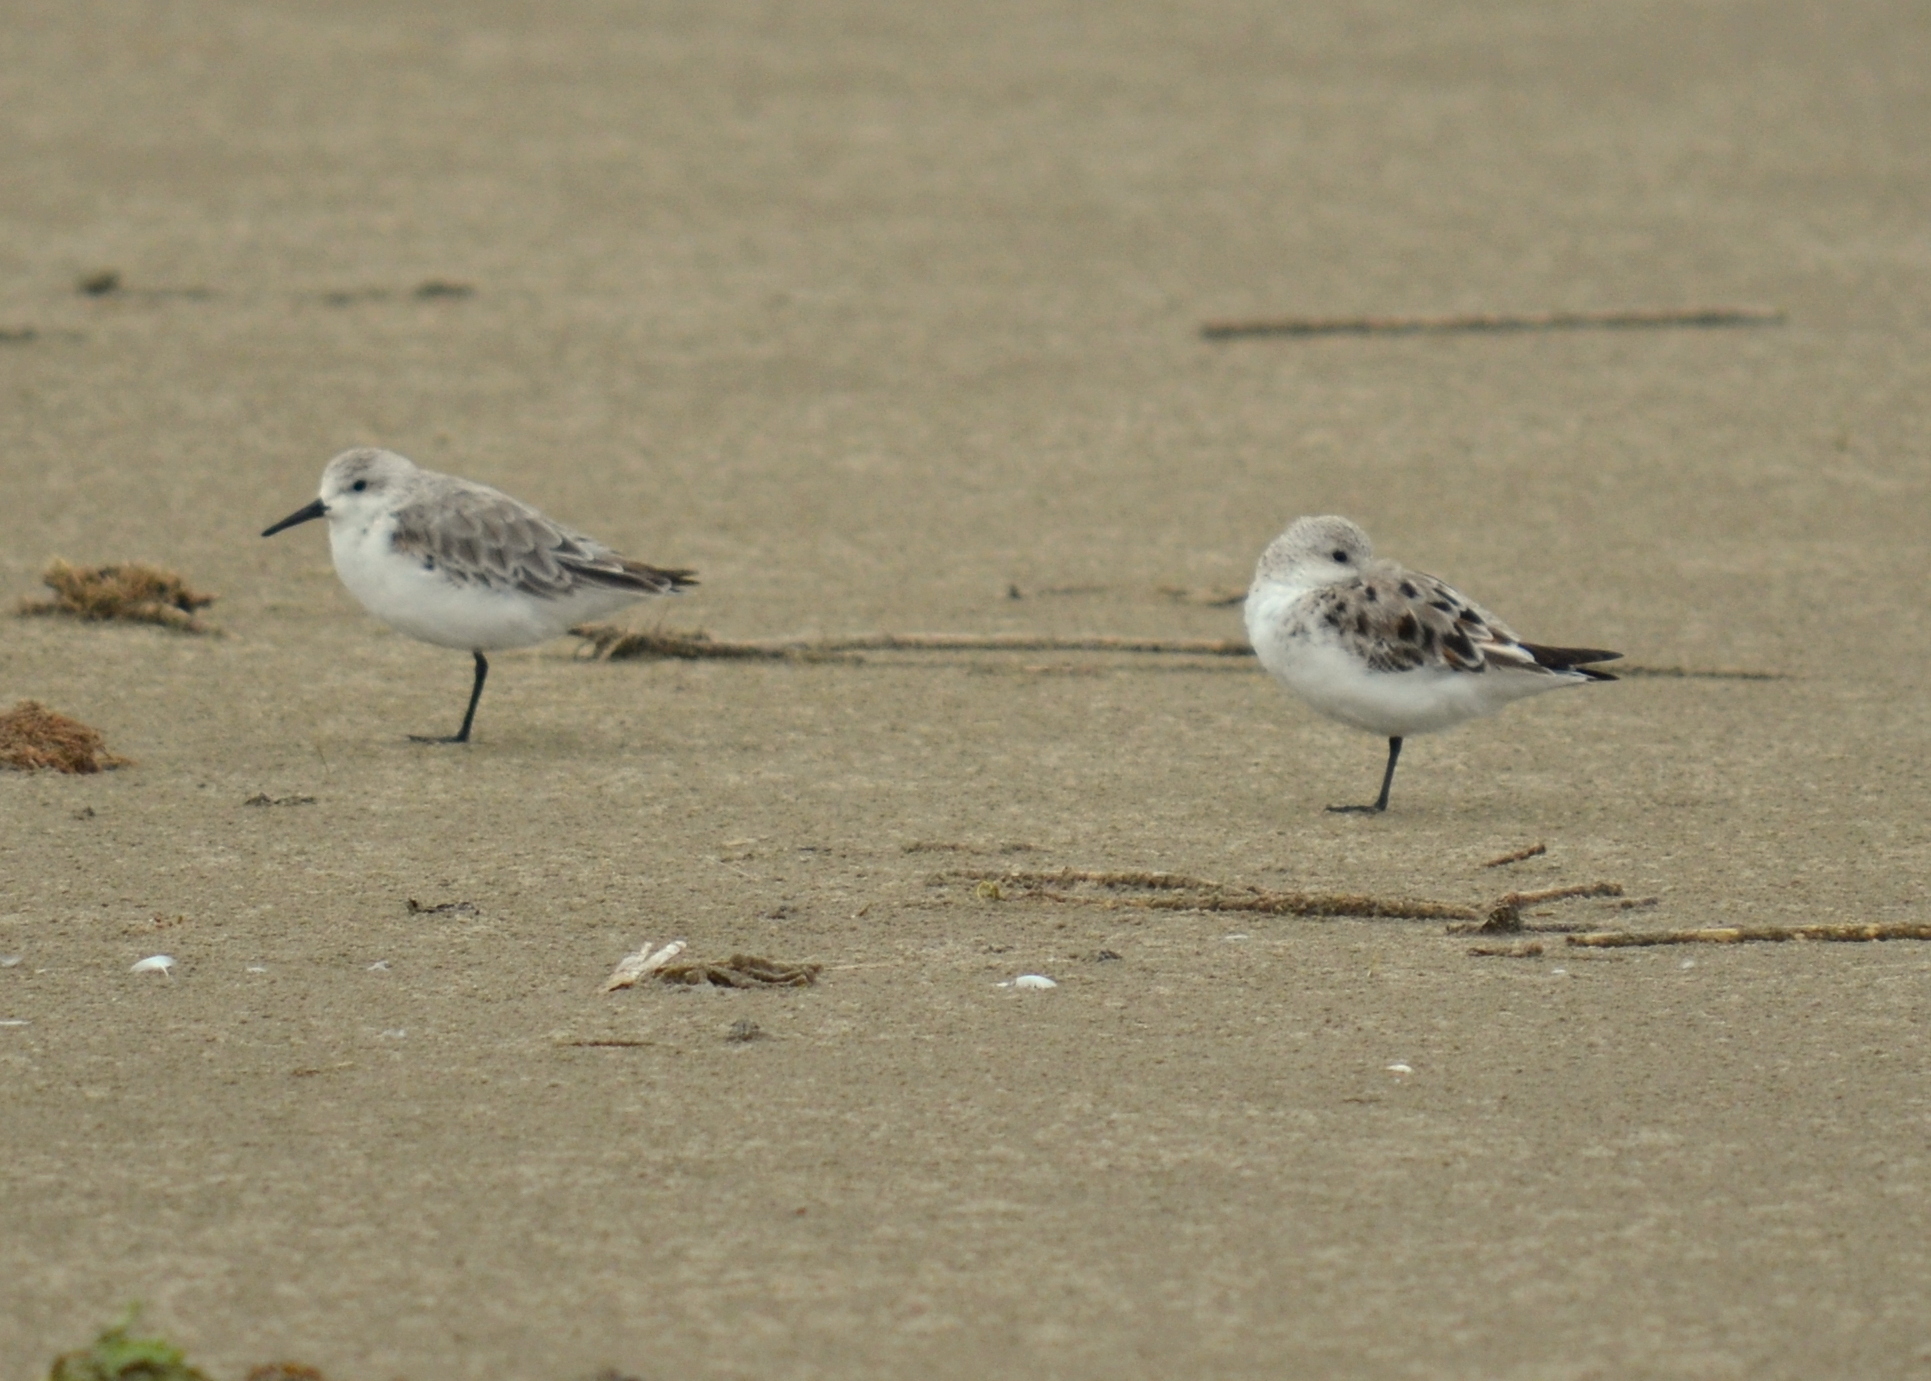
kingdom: Animalia
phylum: Chordata
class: Aves
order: Charadriiformes
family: Scolopacidae
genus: Calidris
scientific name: Calidris alba
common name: Sanderling
